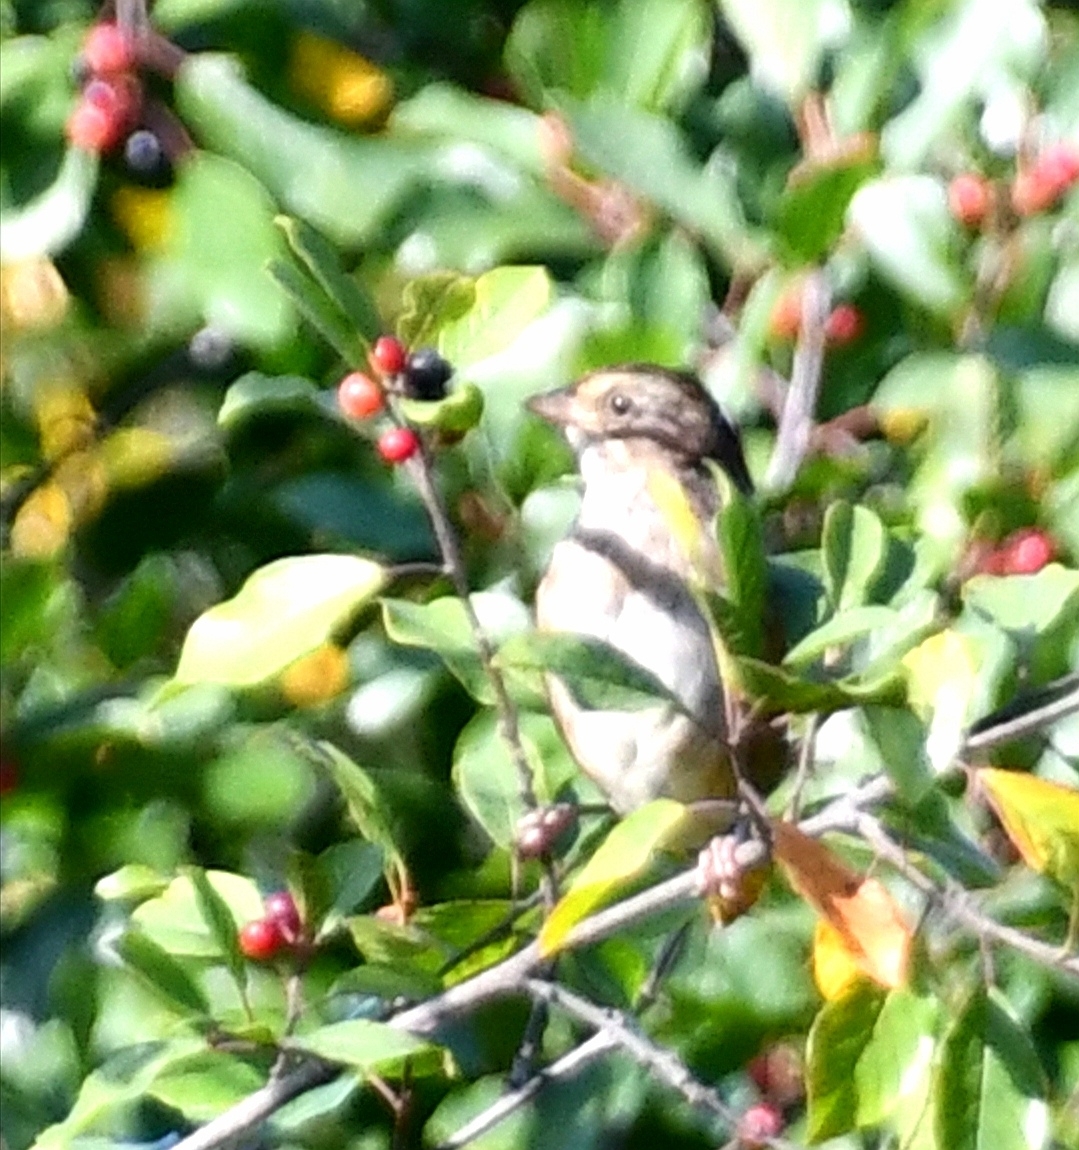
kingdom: Animalia
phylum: Chordata
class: Aves
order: Passeriformes
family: Passerellidae
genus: Melospiza
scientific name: Melospiza georgiana
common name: Swamp sparrow
